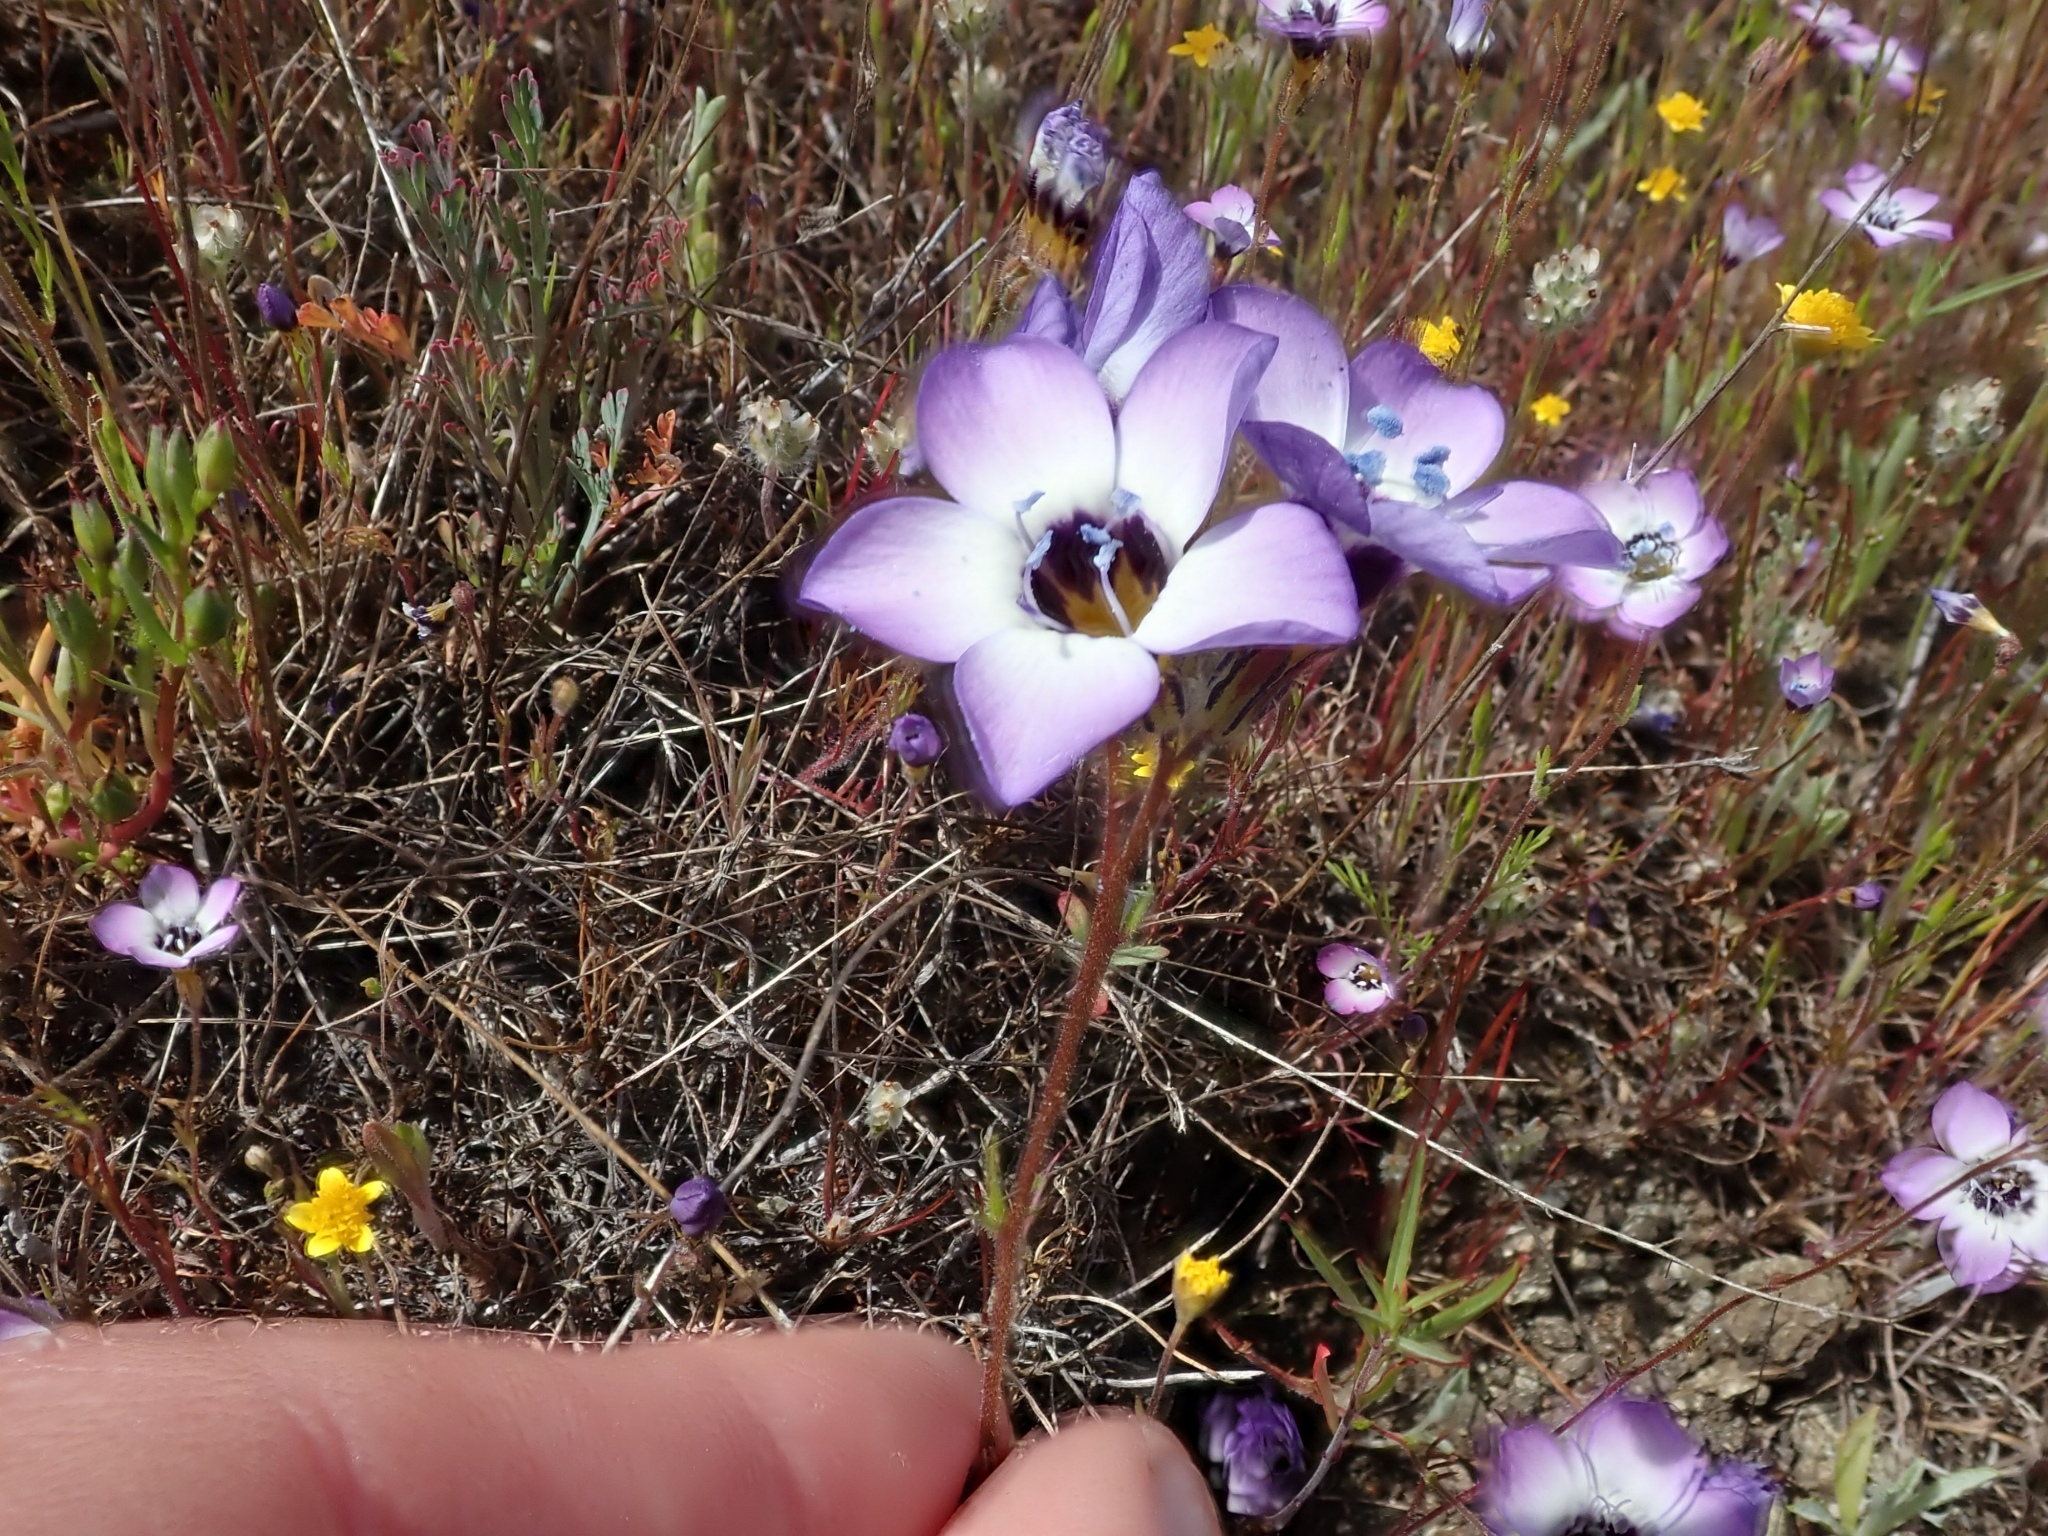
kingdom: Plantae
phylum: Tracheophyta
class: Magnoliopsida
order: Ericales
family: Polemoniaceae
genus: Gilia
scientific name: Gilia tricolor
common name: Bird's-eyes
